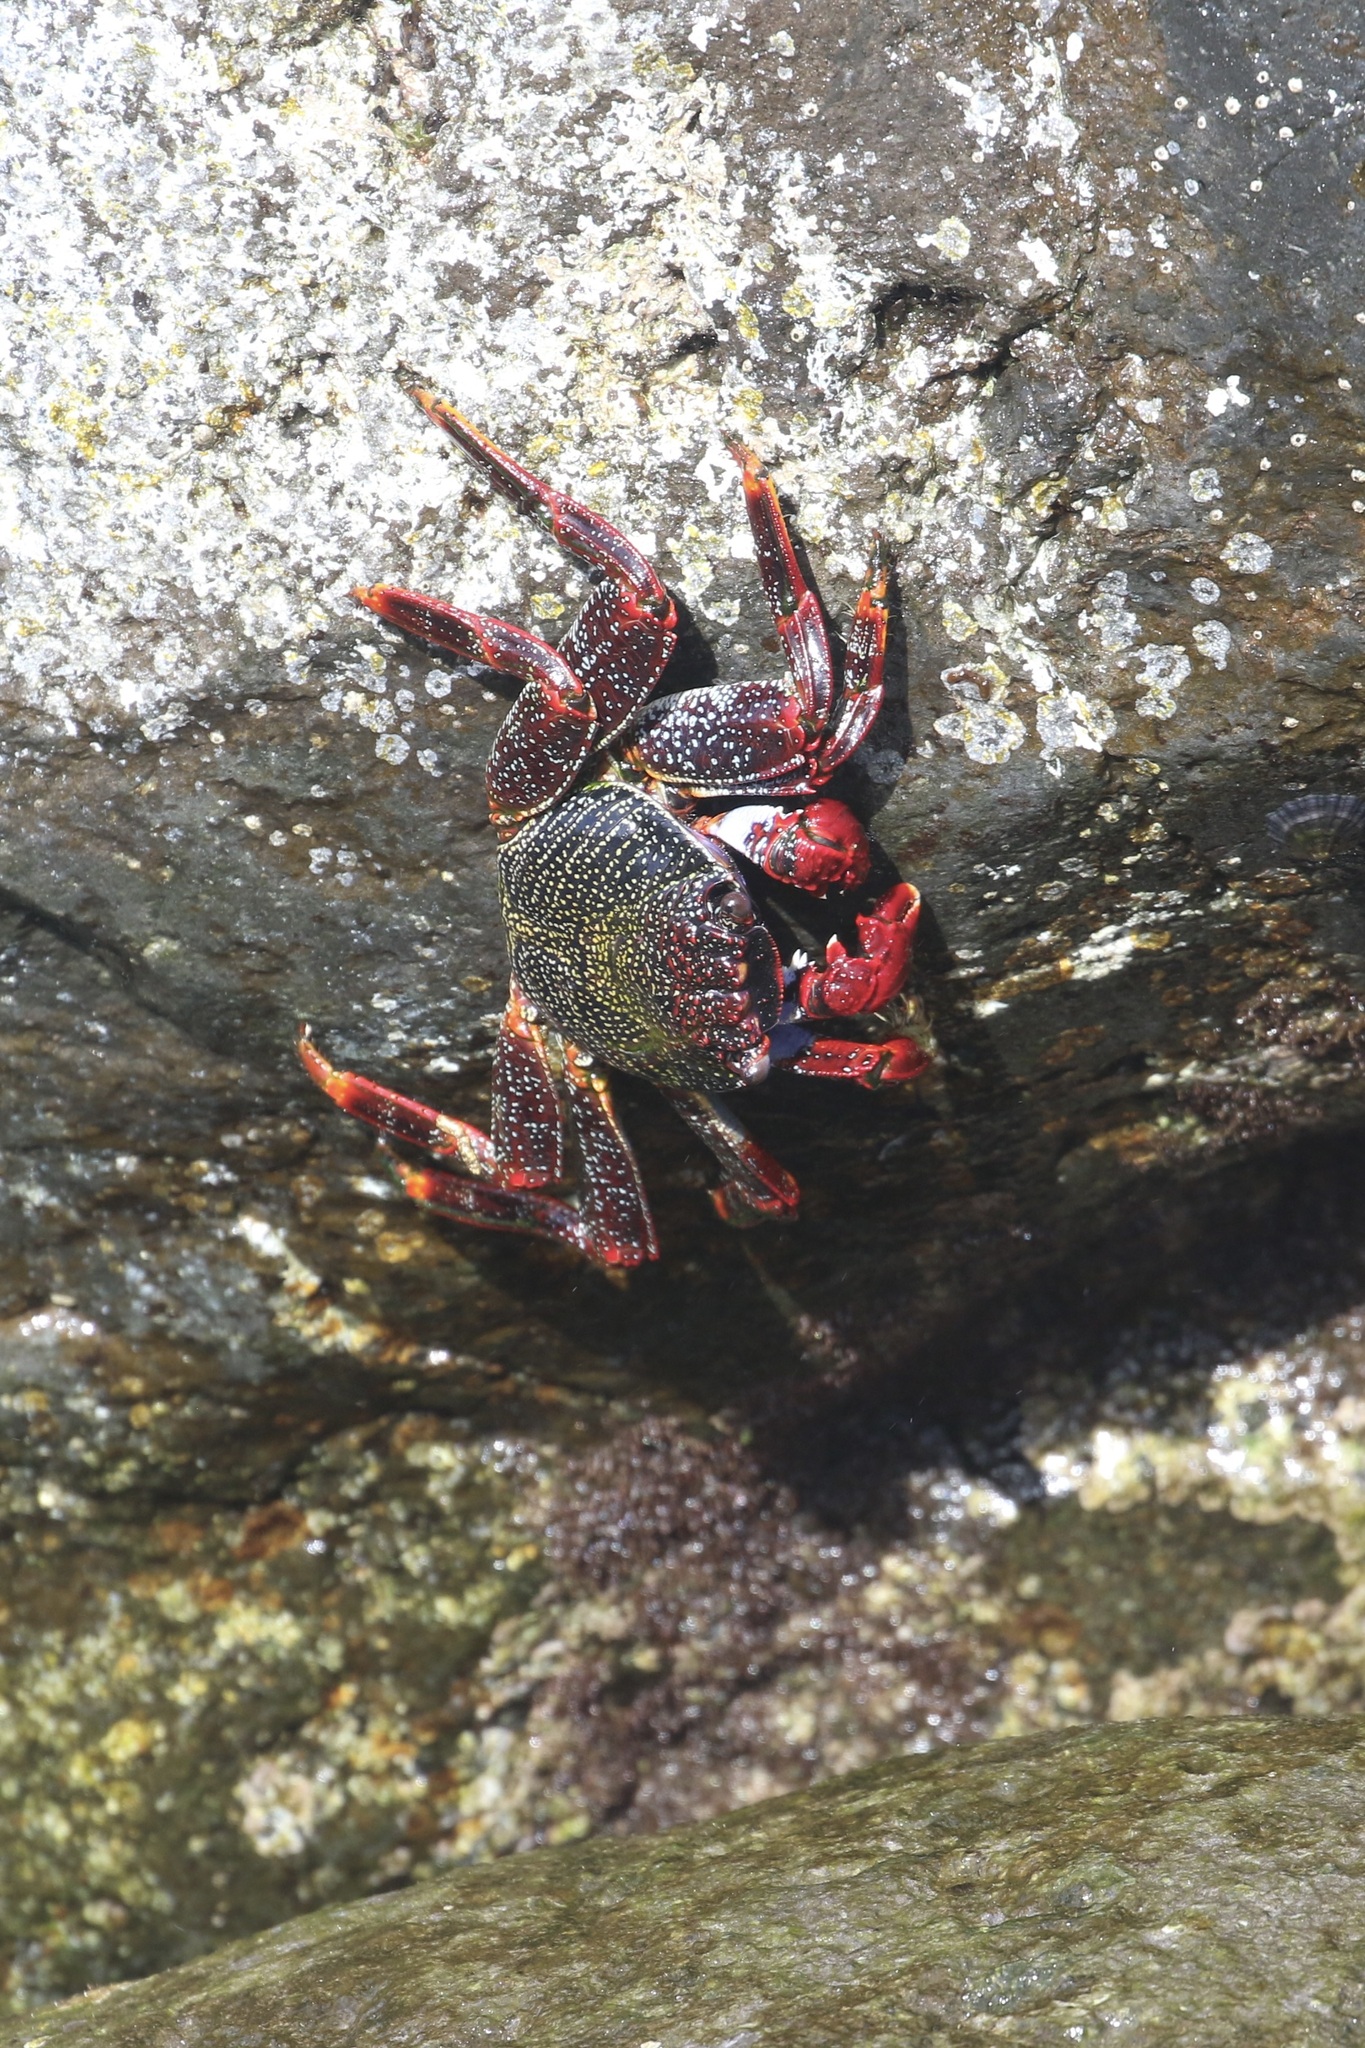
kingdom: Animalia
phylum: Arthropoda
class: Malacostraca
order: Decapoda
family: Grapsidae
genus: Grapsus
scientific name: Grapsus adscensionis
